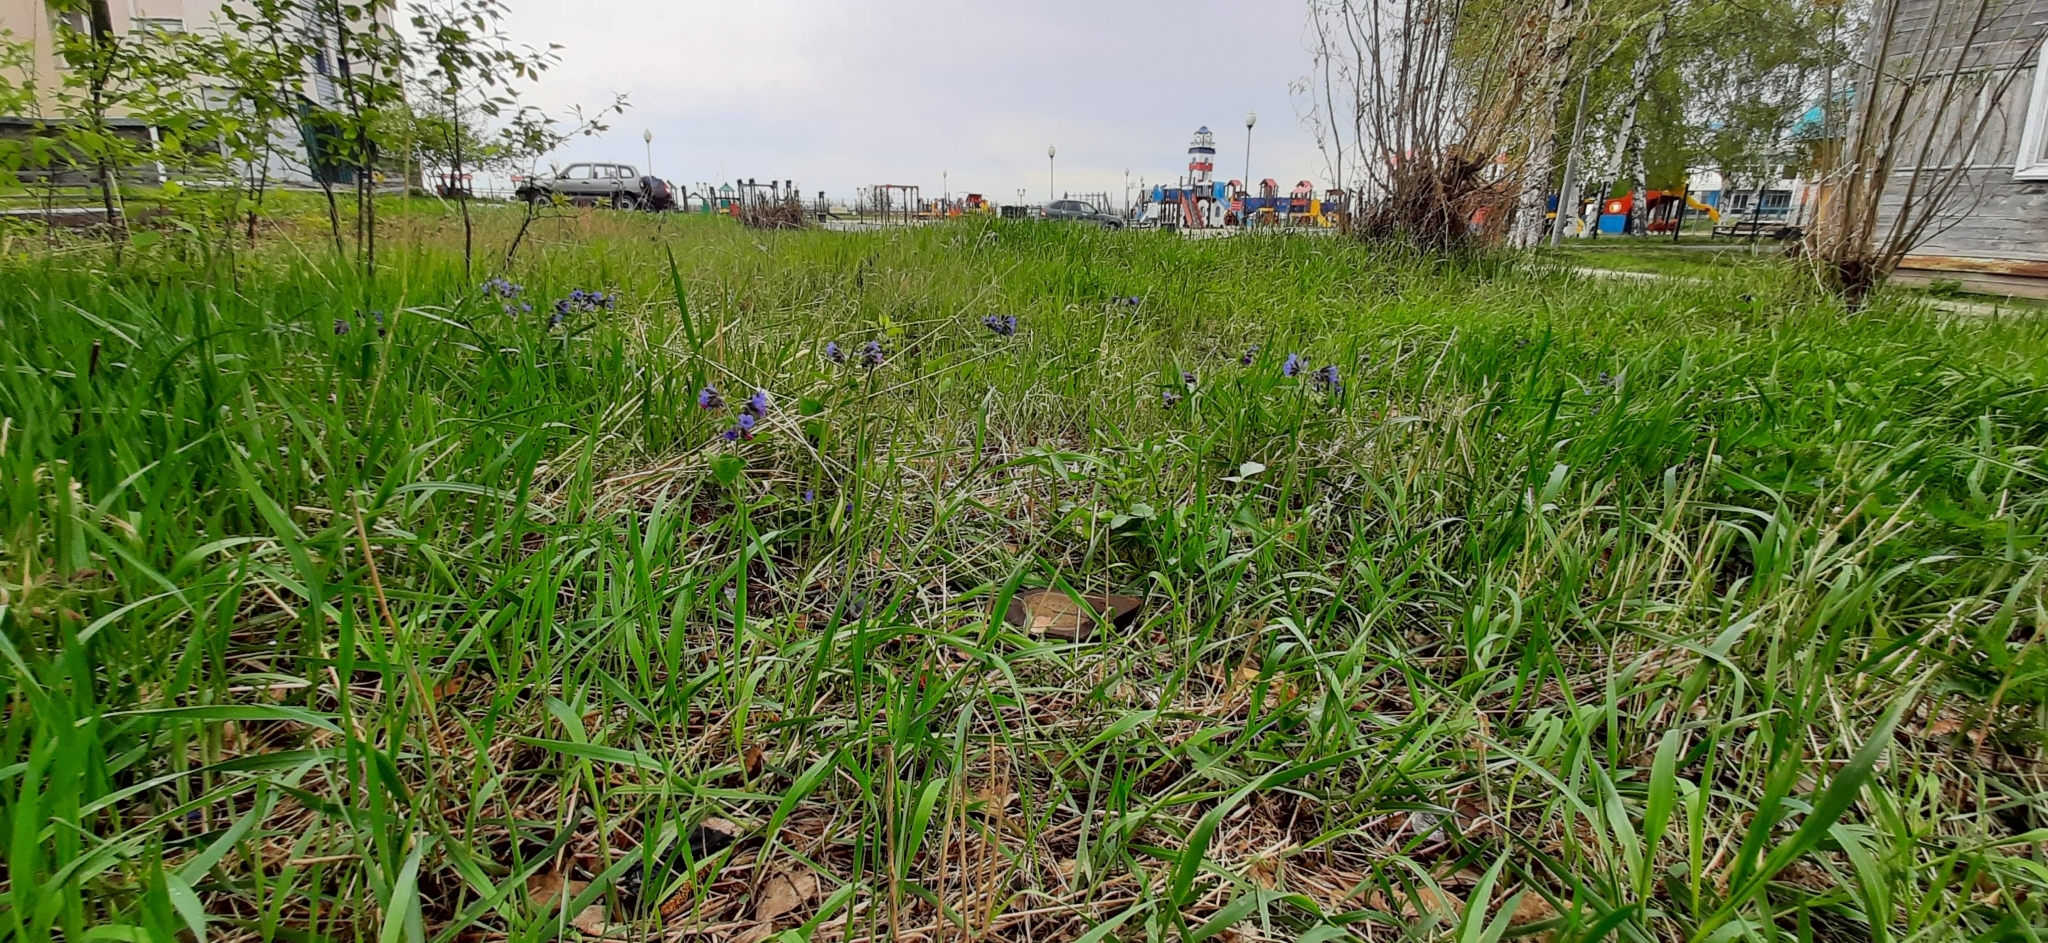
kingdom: Plantae
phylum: Tracheophyta
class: Magnoliopsida
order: Boraginales
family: Boraginaceae
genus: Pulmonaria
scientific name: Pulmonaria mollis
